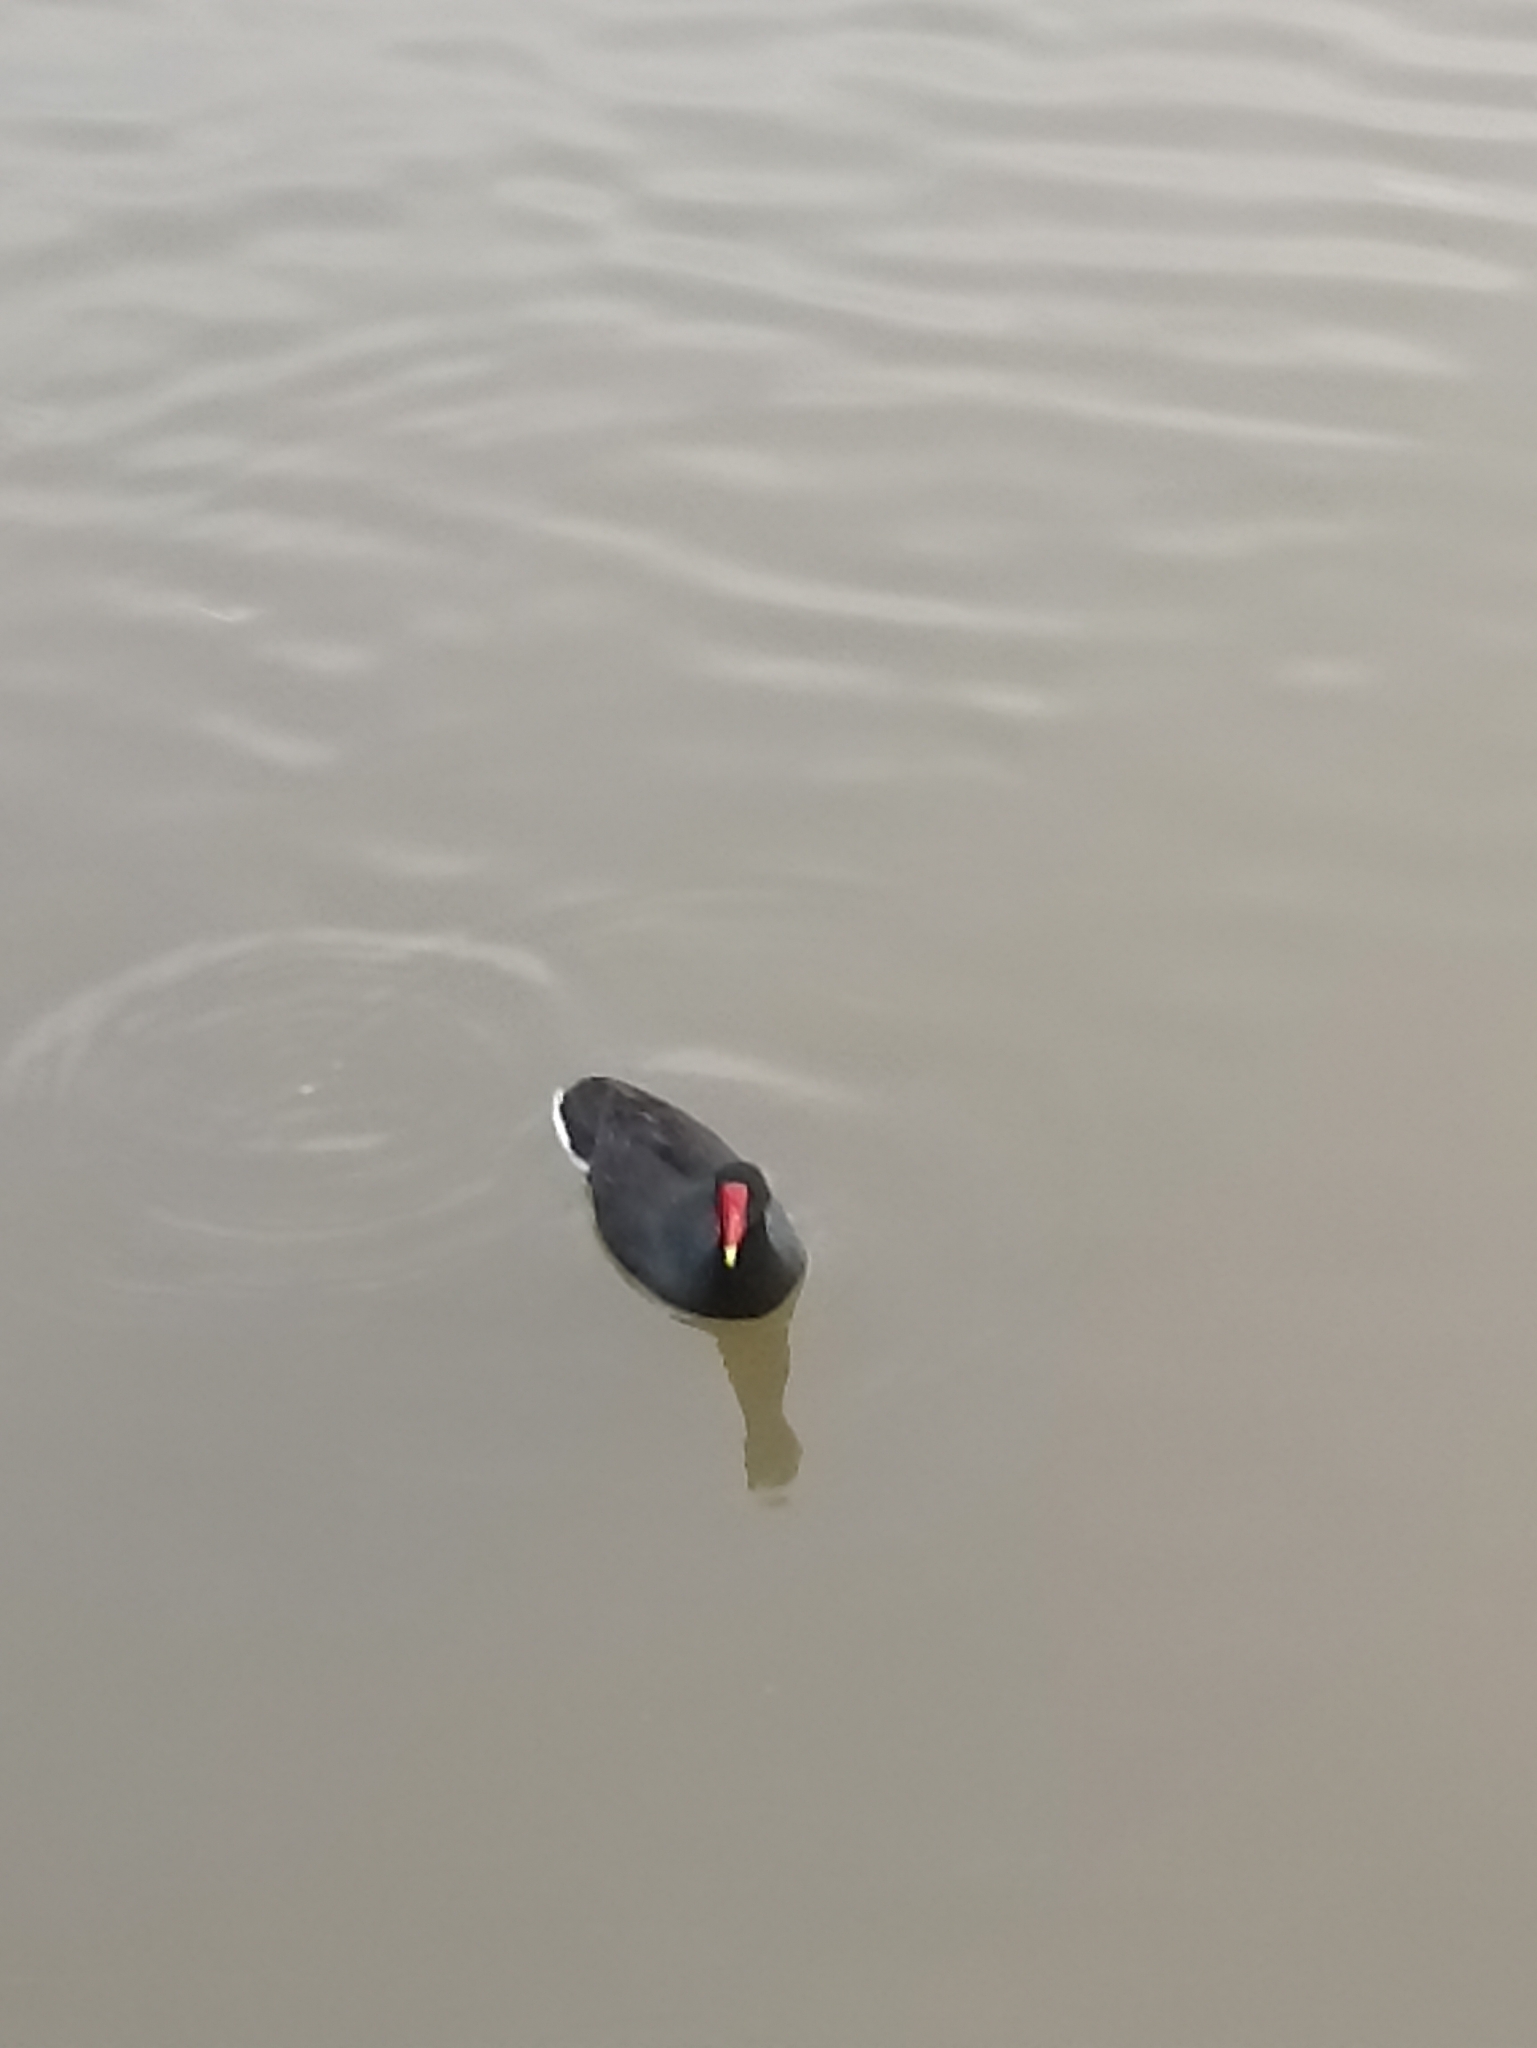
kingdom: Animalia
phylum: Chordata
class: Aves
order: Gruiformes
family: Rallidae
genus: Gallinula
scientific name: Gallinula chloropus
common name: Common moorhen
